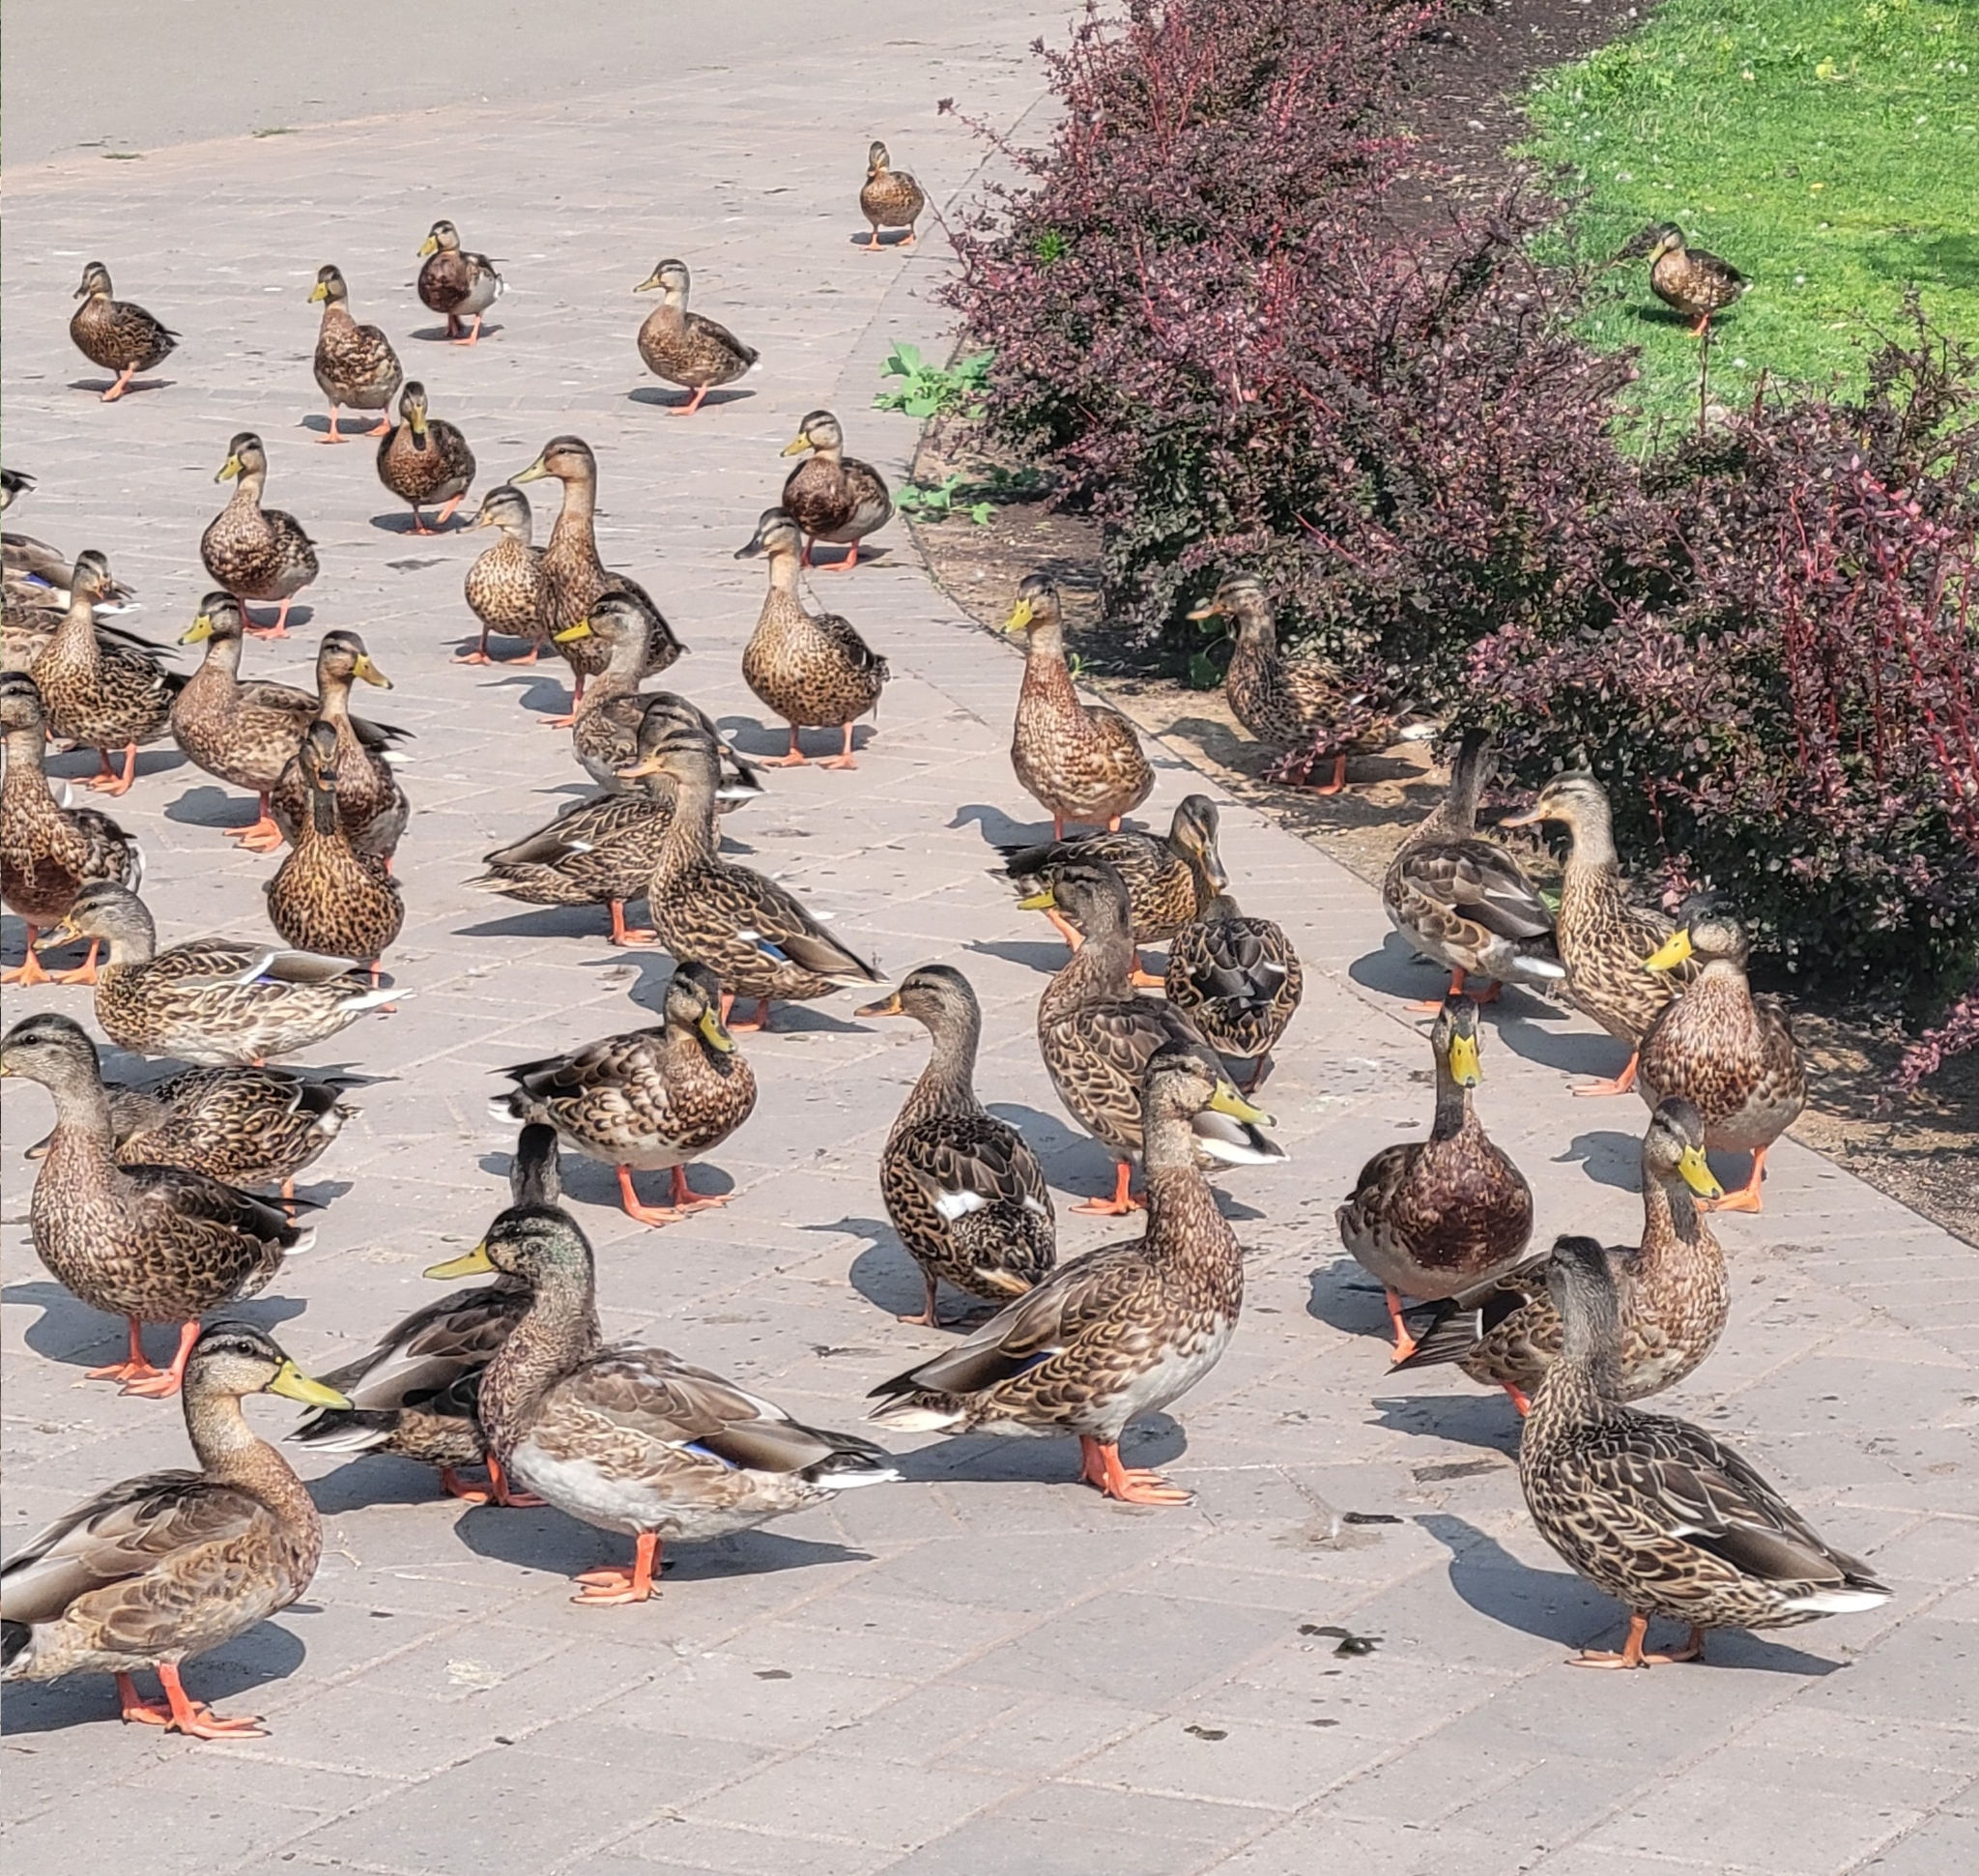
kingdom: Animalia
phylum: Chordata
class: Aves
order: Anseriformes
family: Anatidae
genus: Anas
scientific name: Anas platyrhynchos
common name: Mallard
